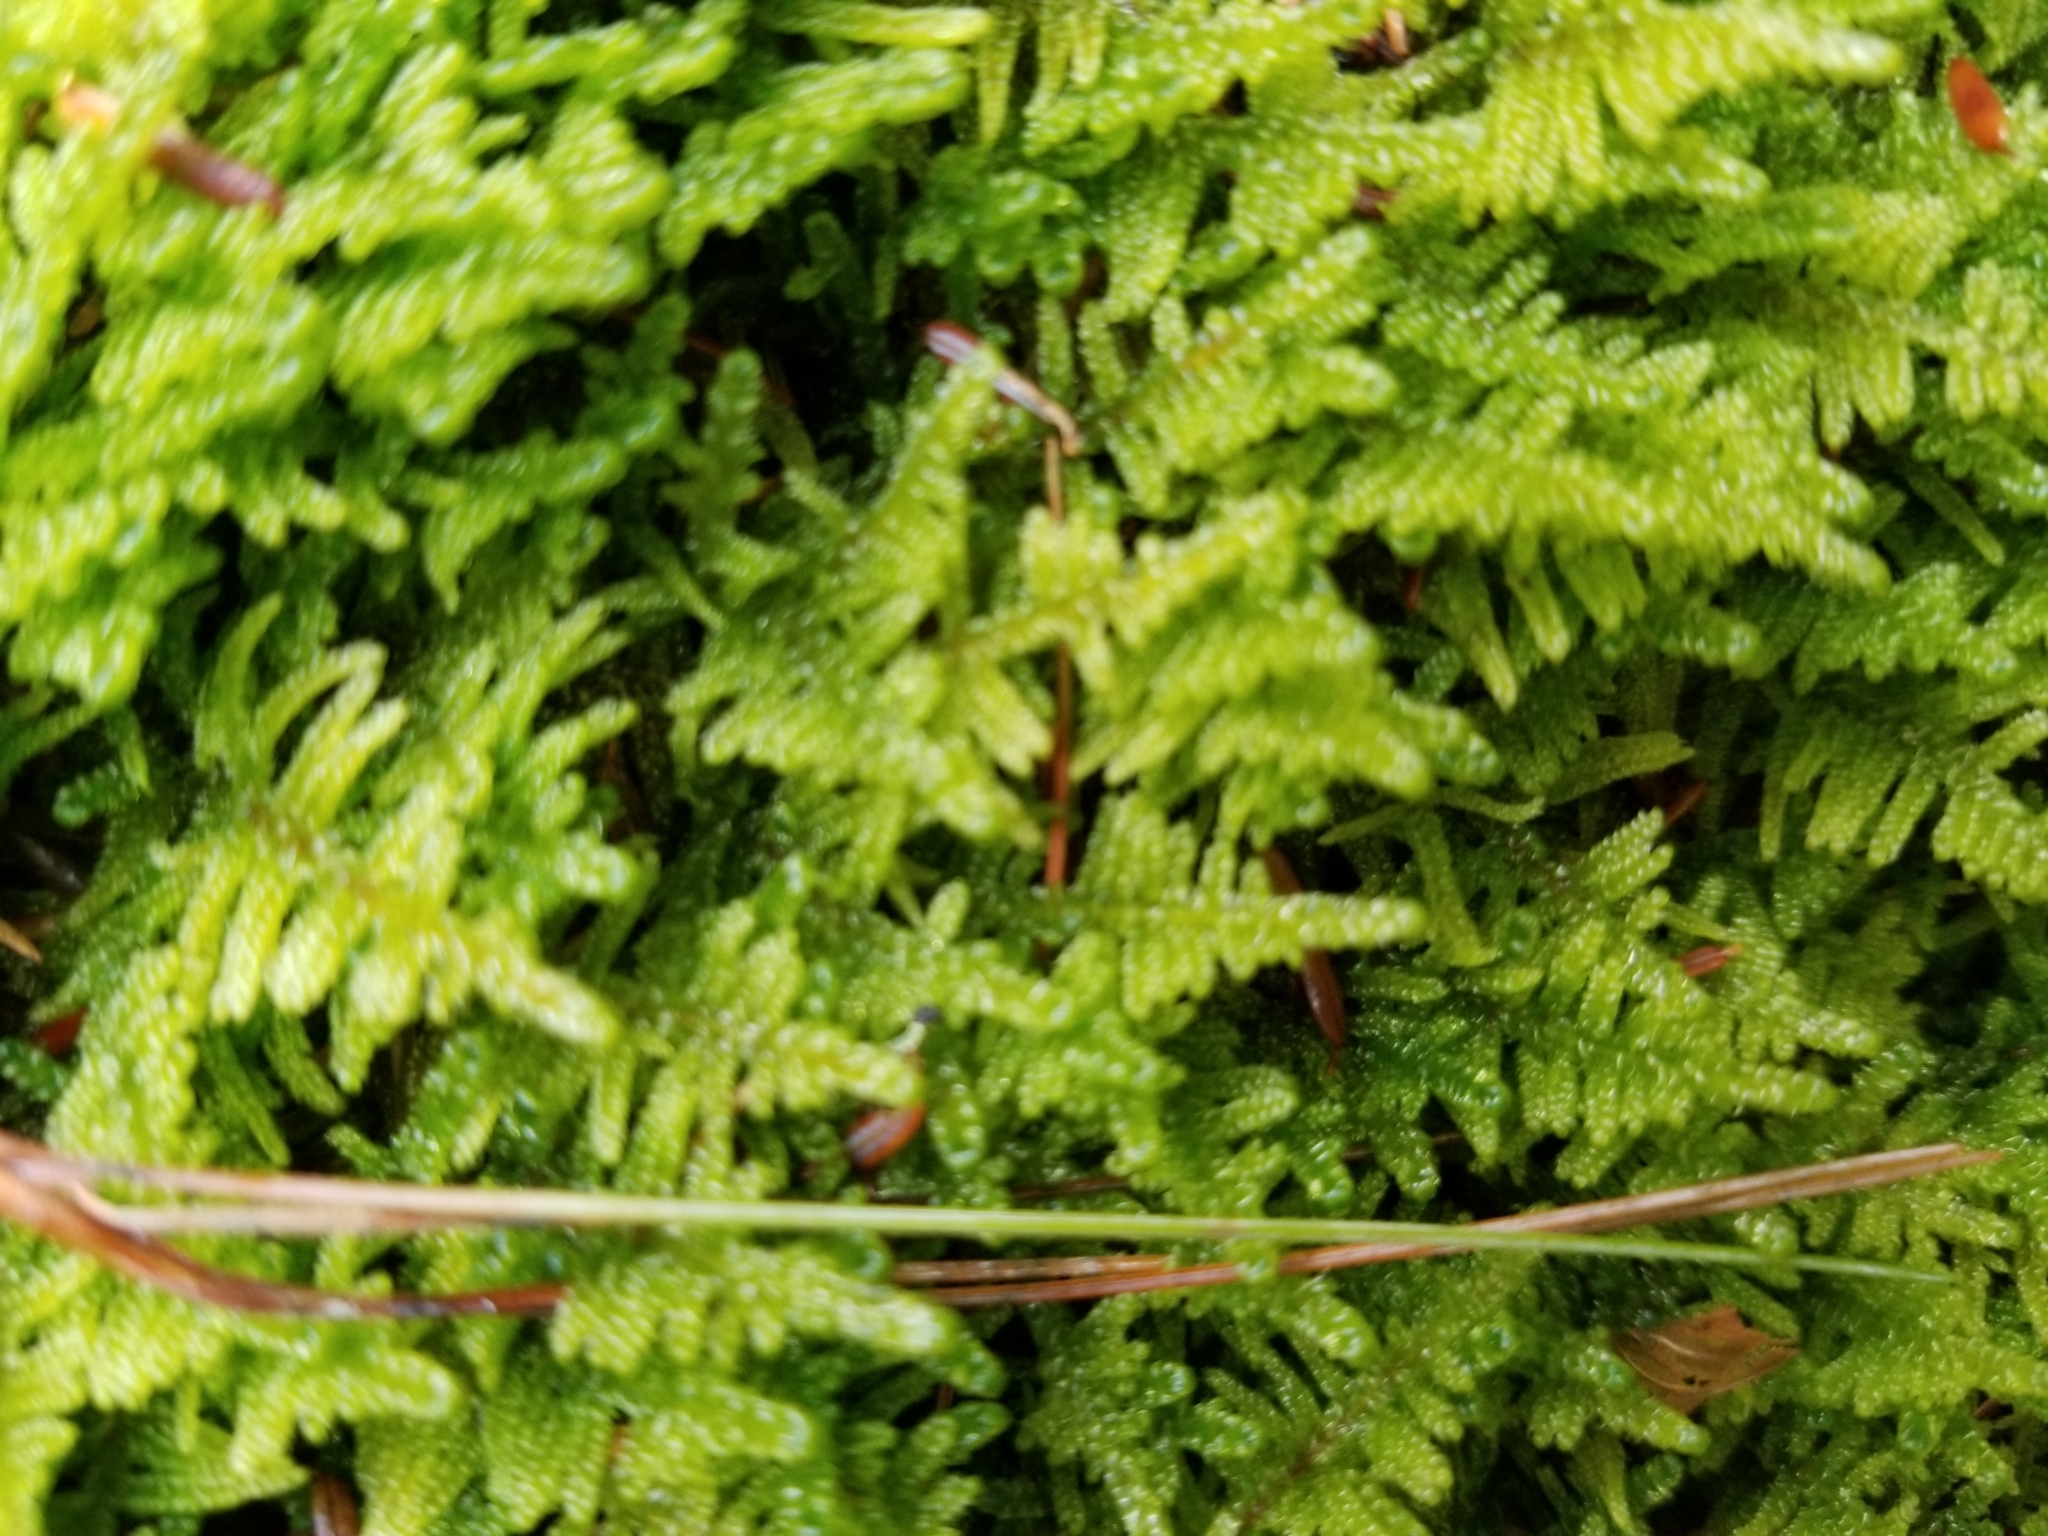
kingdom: Plantae
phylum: Bryophyta
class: Bryopsida
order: Hypnales
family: Callicladiaceae
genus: Callicladium
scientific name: Callicladium imponens
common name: Brocade moss
